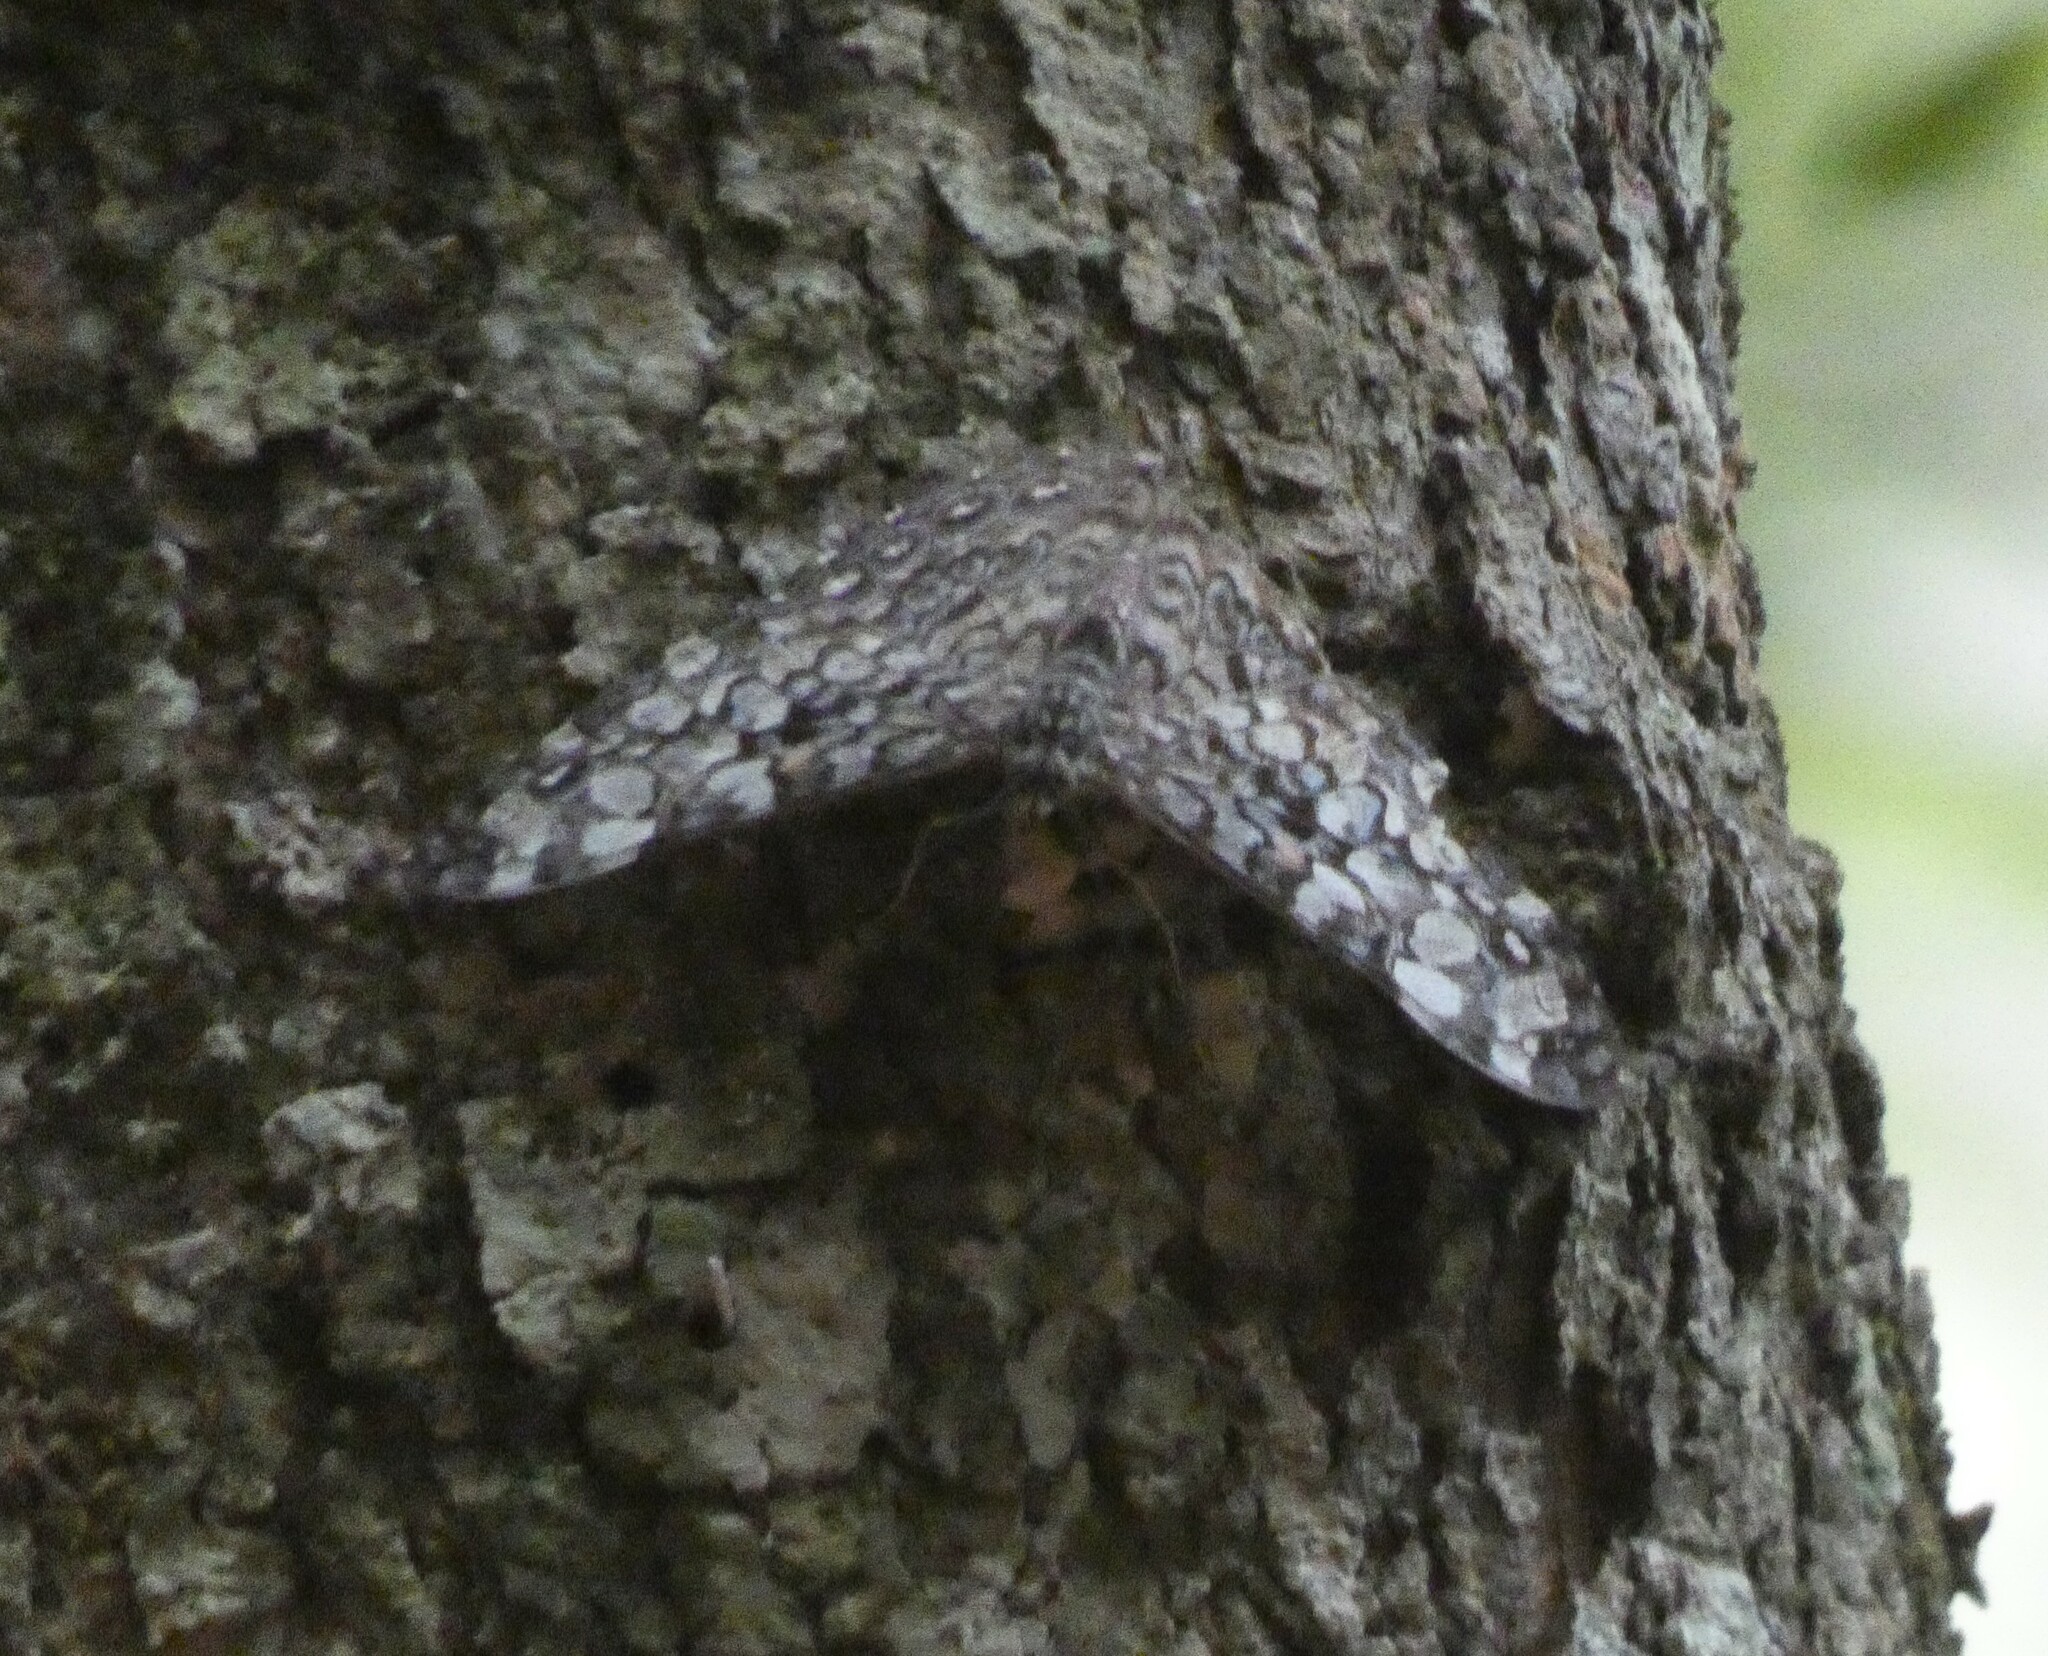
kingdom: Animalia
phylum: Arthropoda
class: Insecta
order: Lepidoptera
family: Nymphalidae
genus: Hamadryas
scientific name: Hamadryas epinome
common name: Epinome cracker
